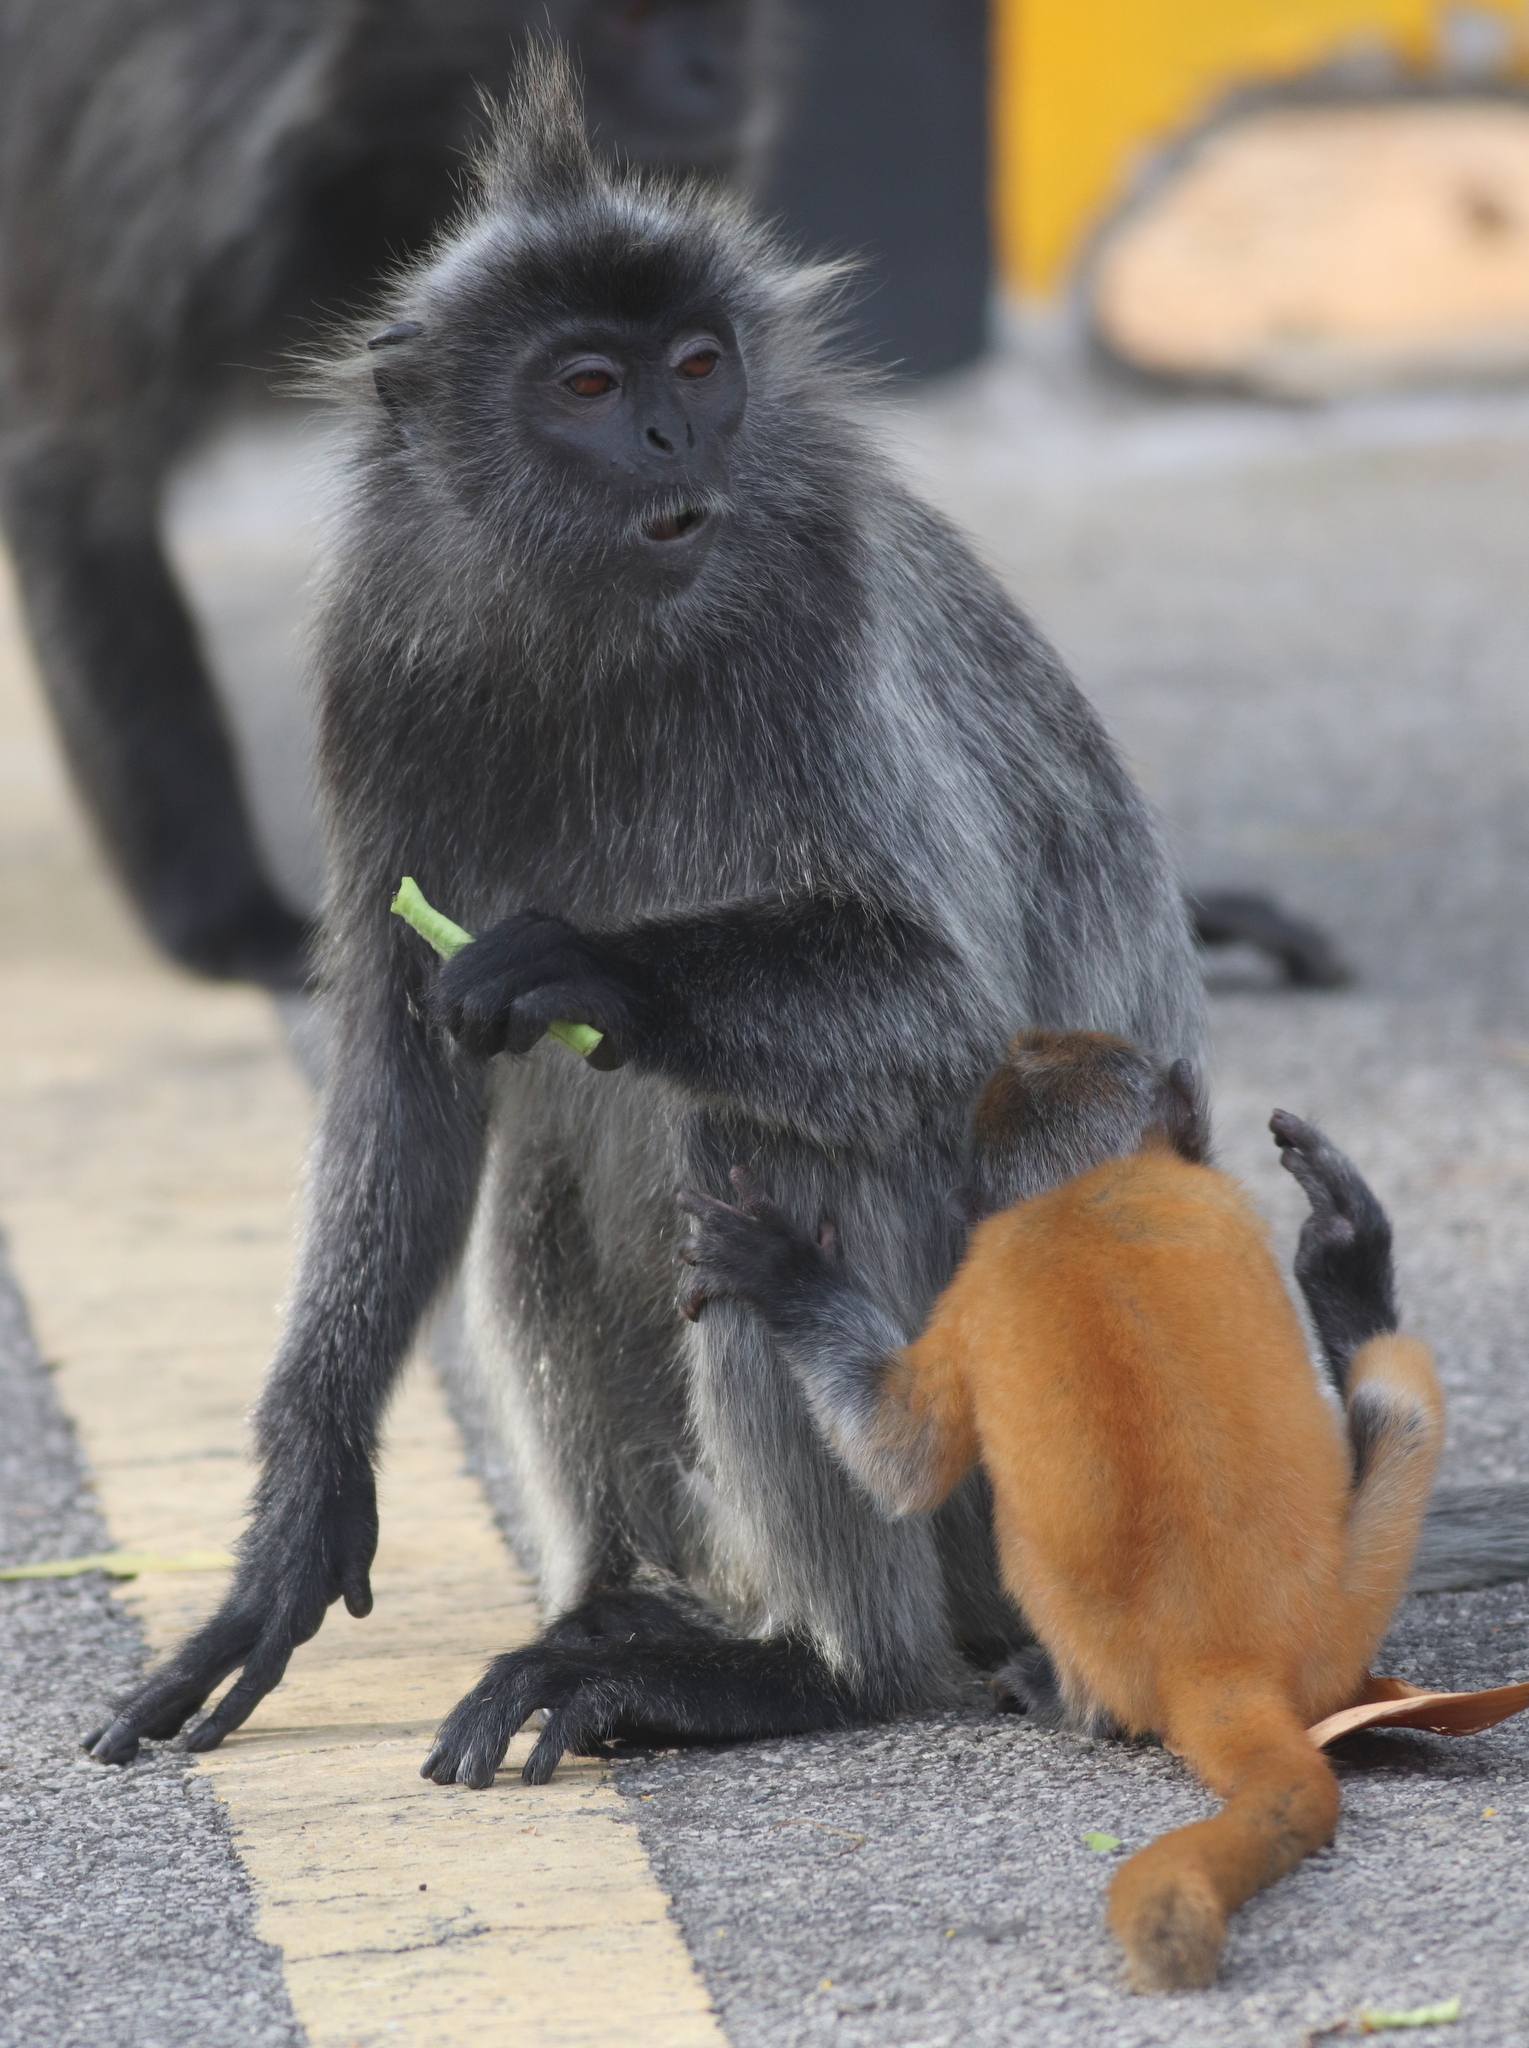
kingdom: Animalia
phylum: Chordata
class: Mammalia
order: Primates
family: Cercopithecidae
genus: Trachypithecus
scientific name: Trachypithecus selangorensis
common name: Selangor silvery langur
